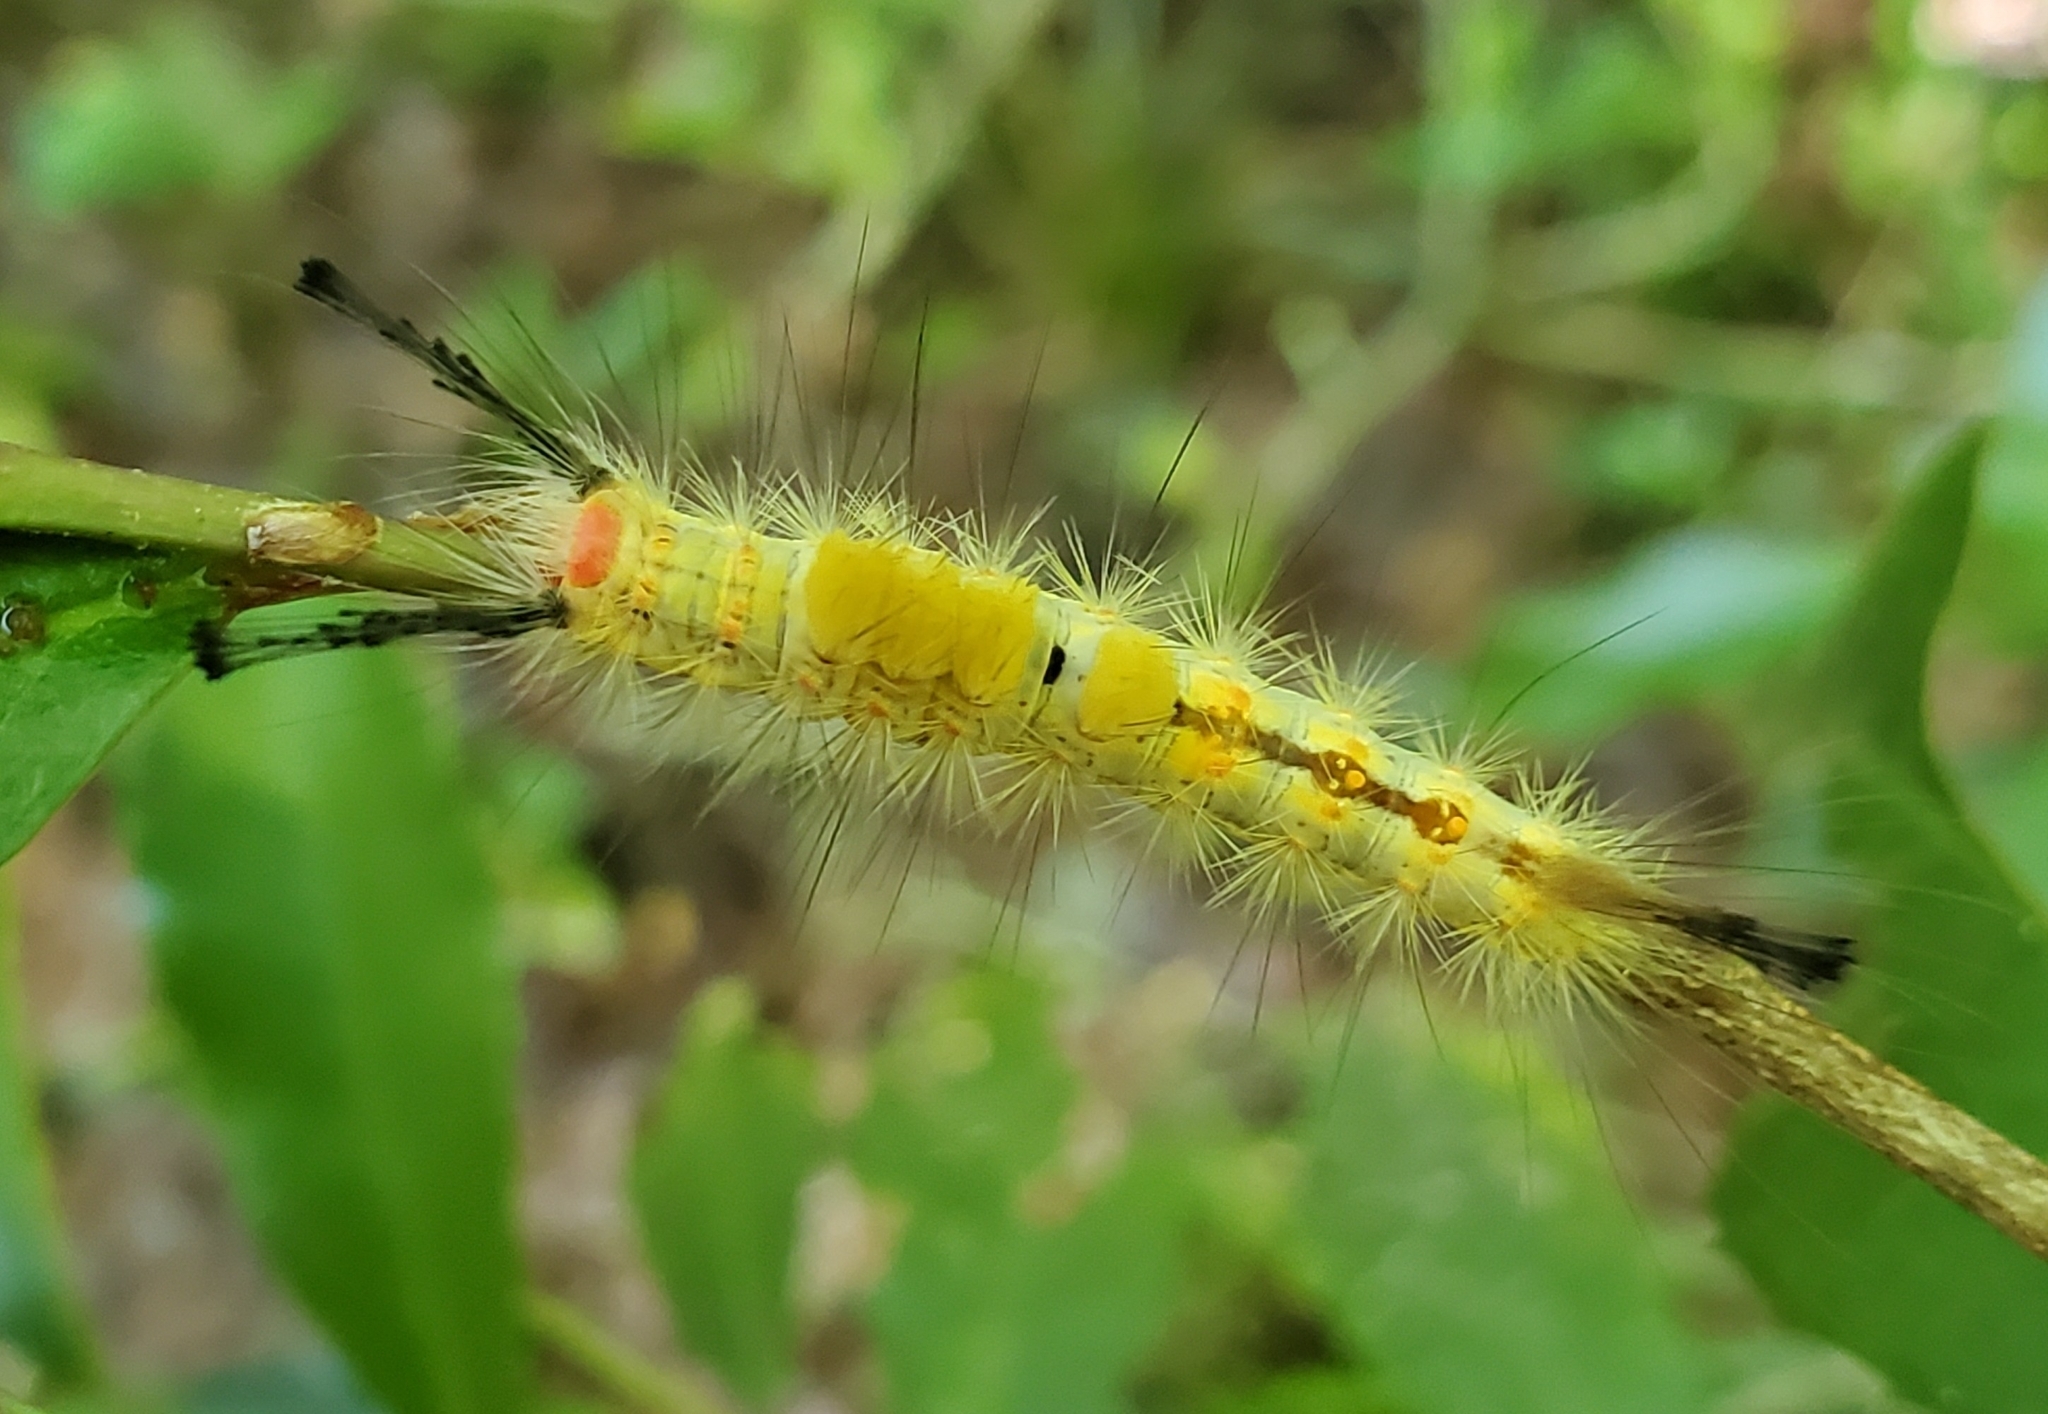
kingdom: Animalia
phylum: Arthropoda
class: Insecta
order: Lepidoptera
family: Erebidae
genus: Orgyia
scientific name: Orgyia detrita
